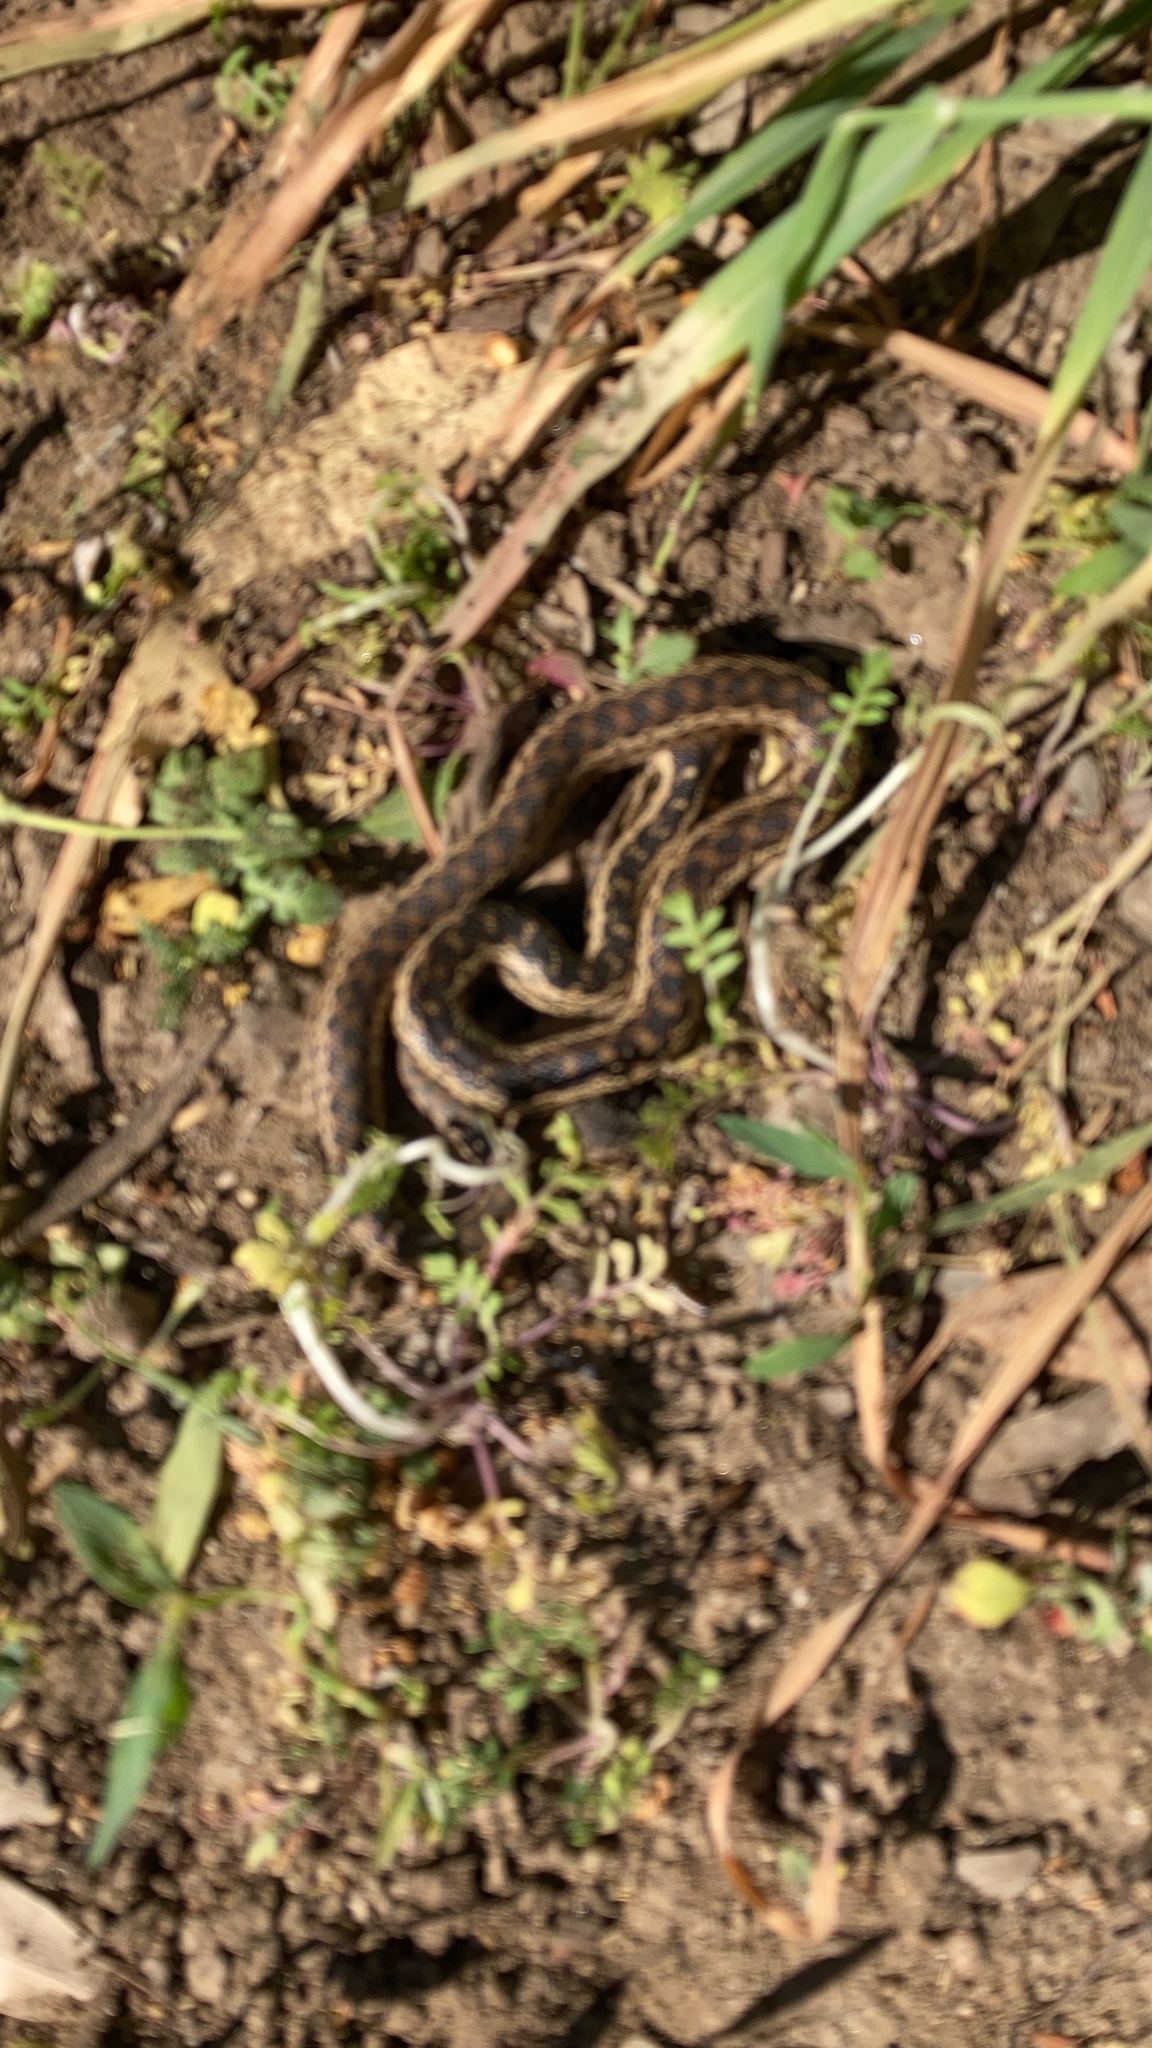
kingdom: Animalia
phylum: Chordata
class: Squamata
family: Colubridae
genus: Pituophis
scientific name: Pituophis catenifer
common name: Gopher snake
